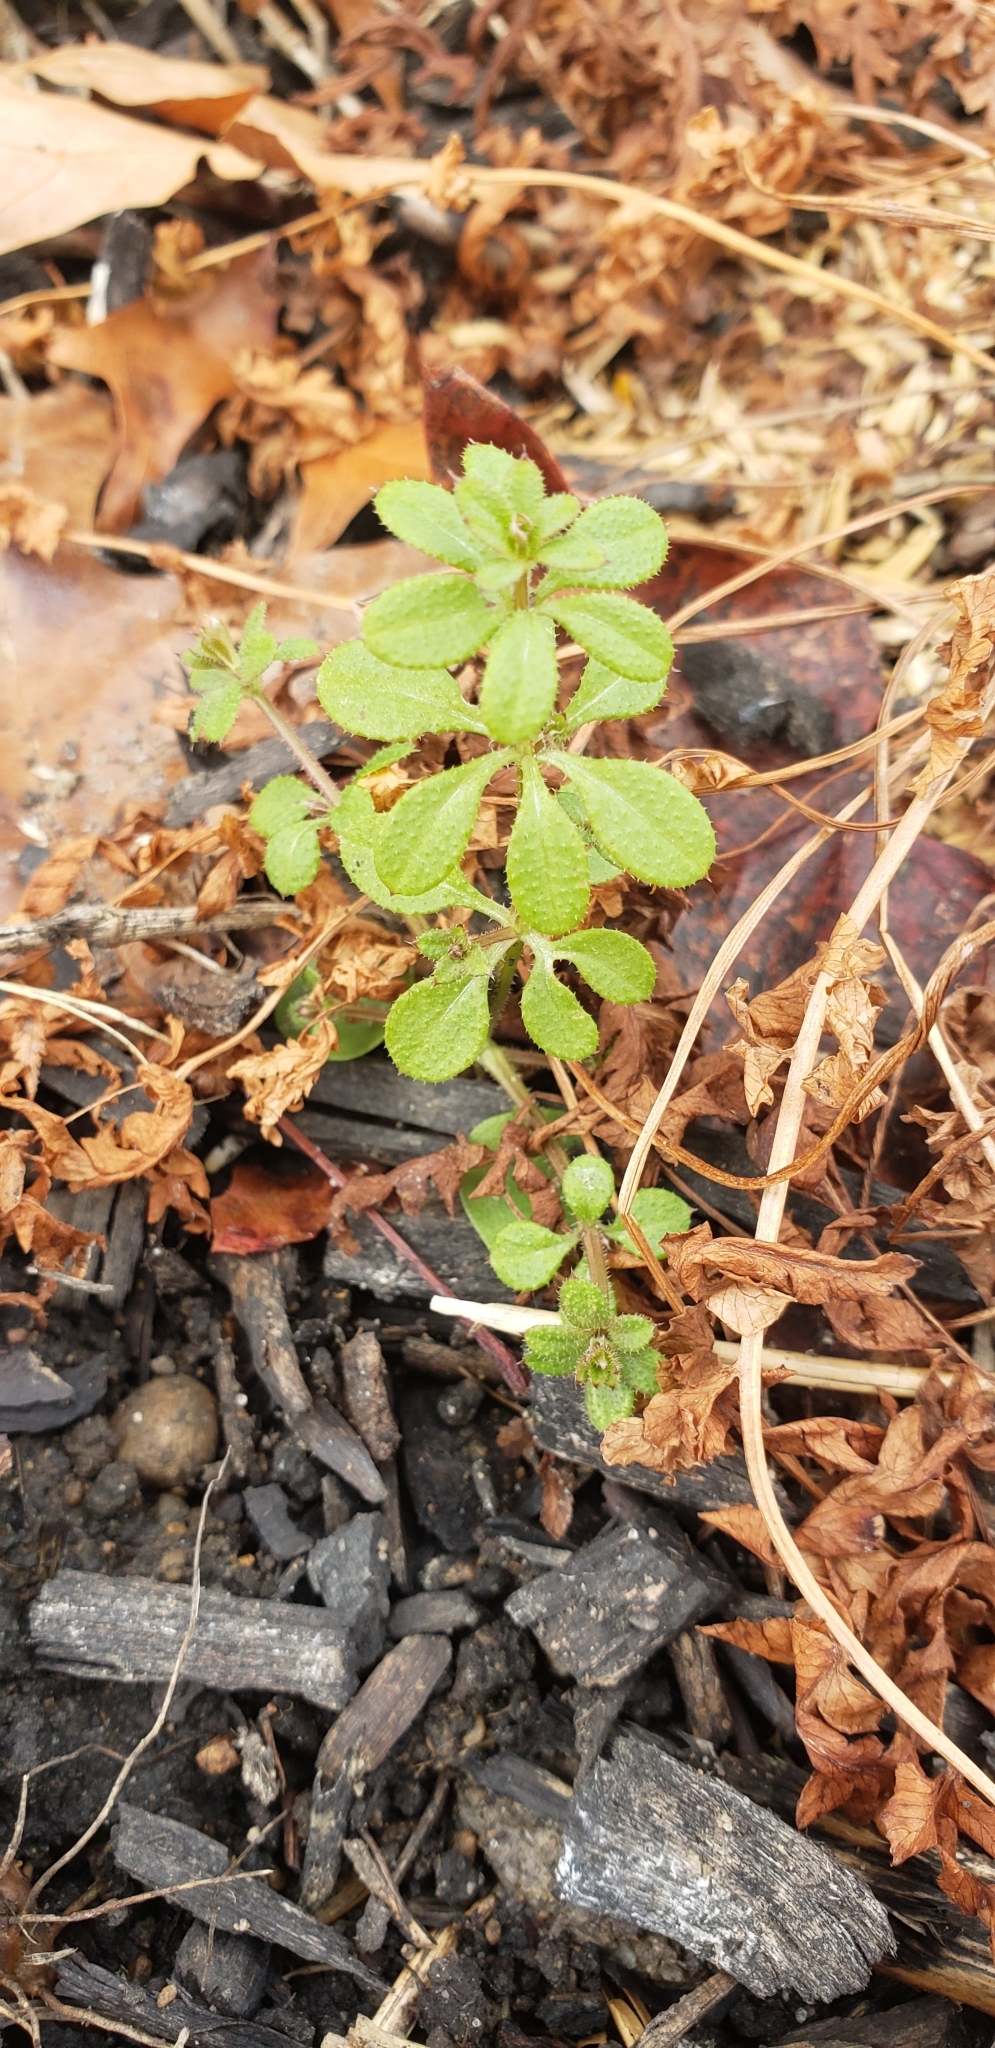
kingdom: Plantae
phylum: Tracheophyta
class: Magnoliopsida
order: Gentianales
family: Rubiaceae
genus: Galium
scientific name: Galium aparine
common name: Cleavers
